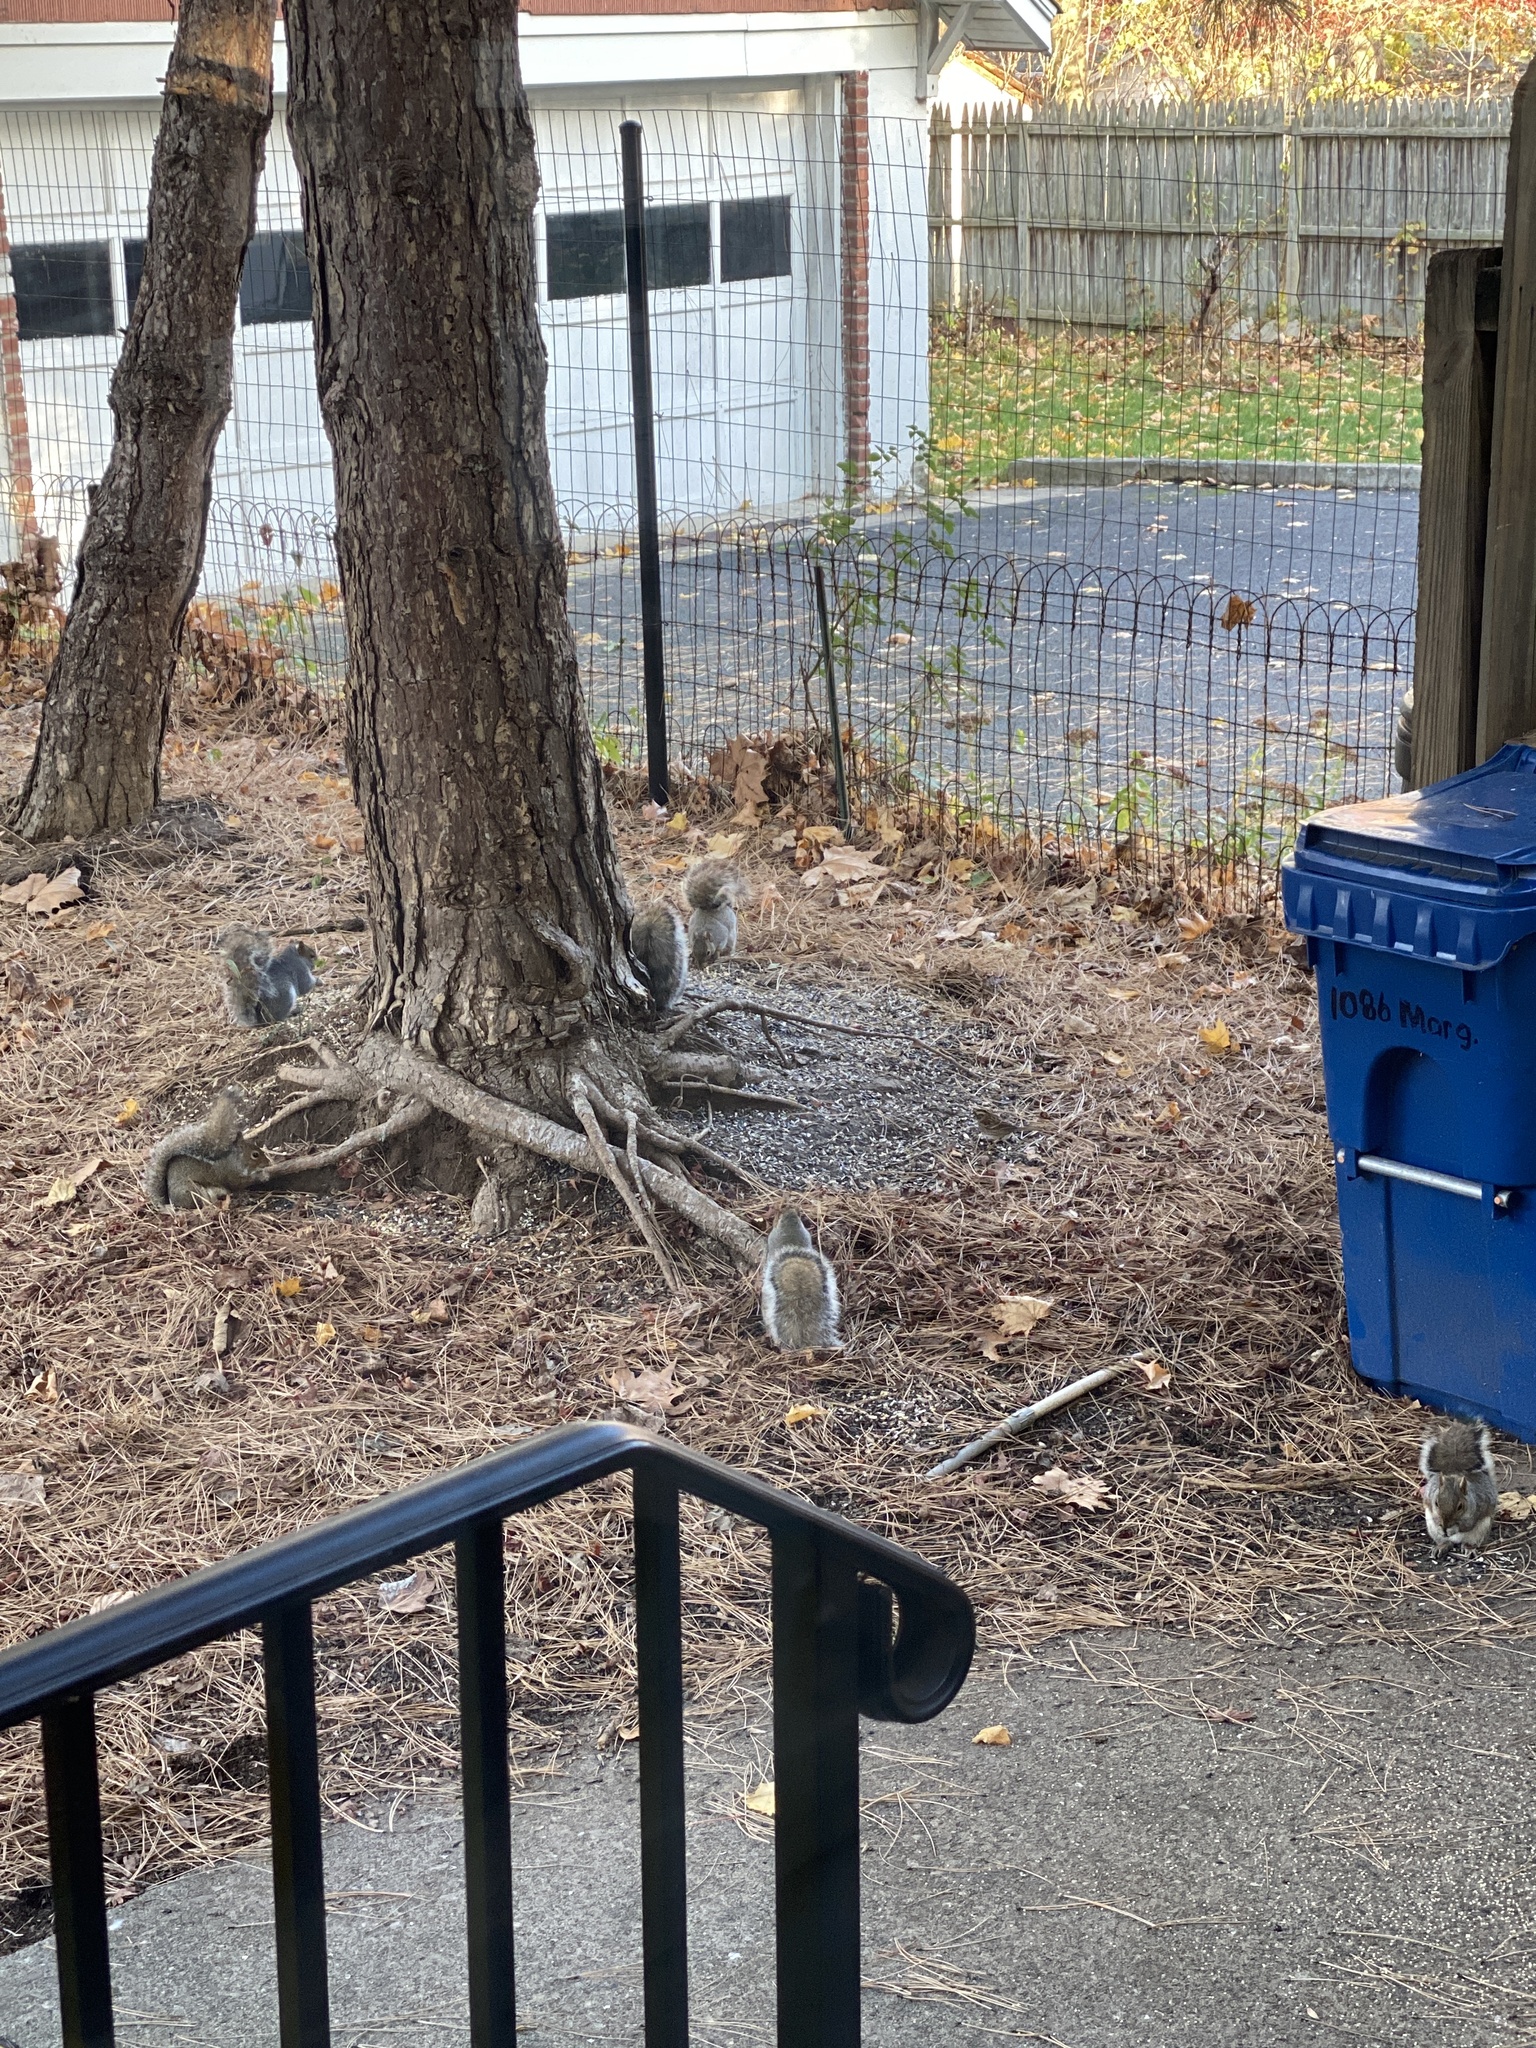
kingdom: Animalia
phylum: Chordata
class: Mammalia
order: Rodentia
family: Sciuridae
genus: Sciurus
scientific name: Sciurus carolinensis
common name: Eastern gray squirrel
